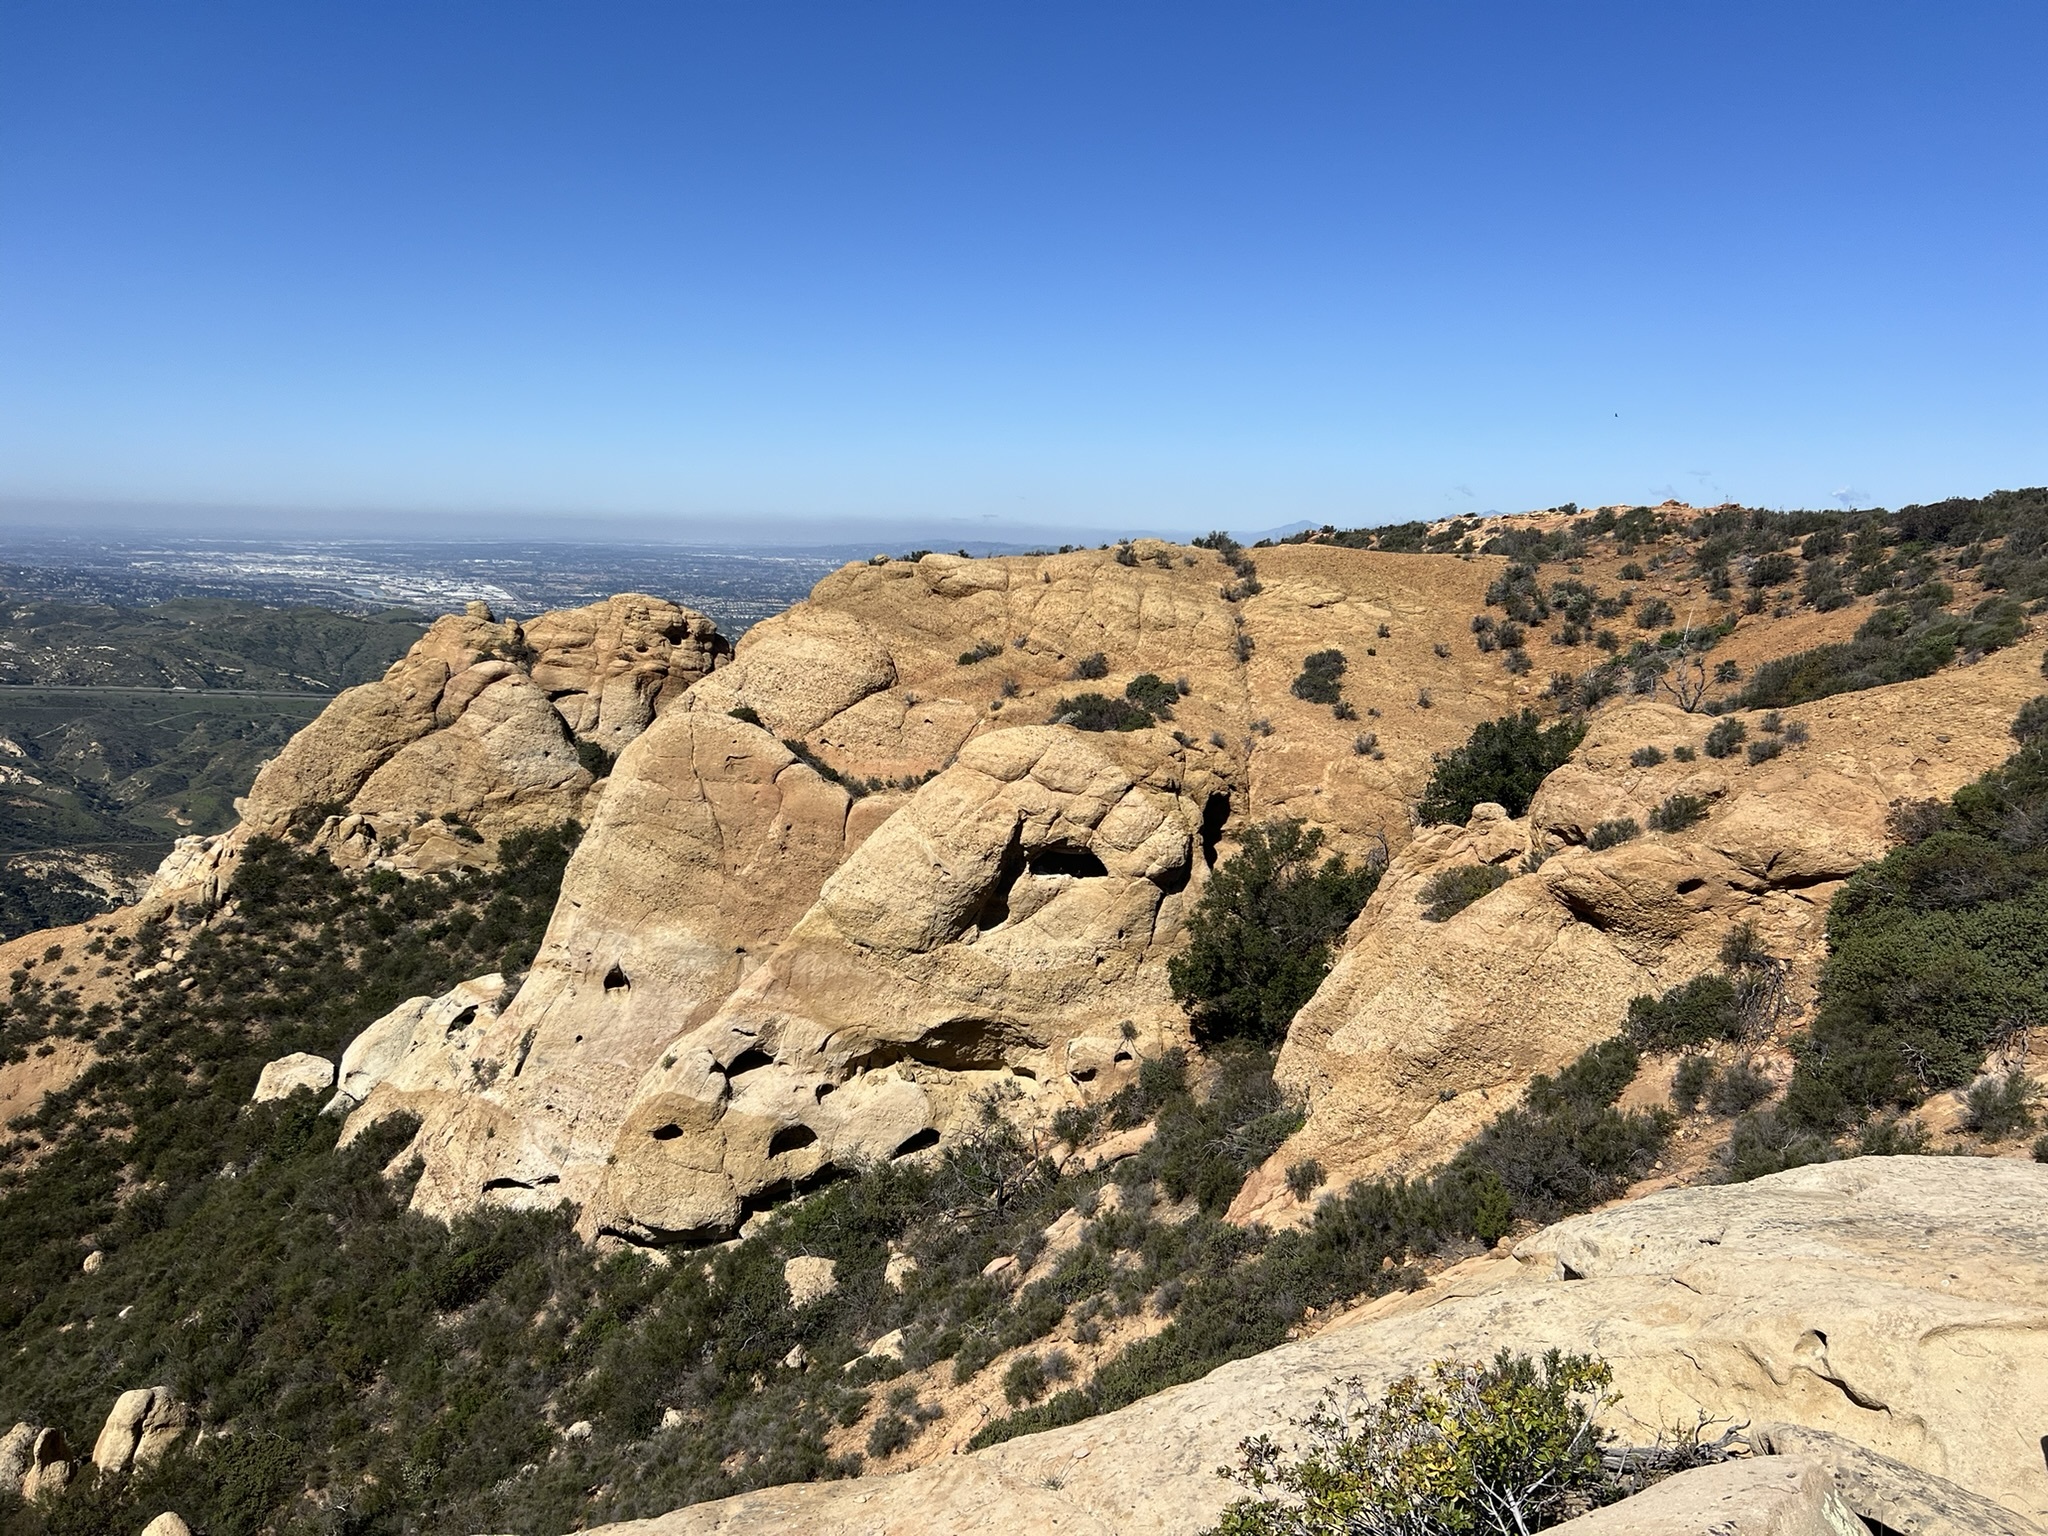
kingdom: Animalia
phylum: Chordata
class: Aves
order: Accipitriformes
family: Cathartidae
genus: Cathartes
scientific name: Cathartes aura
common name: Turkey vulture
